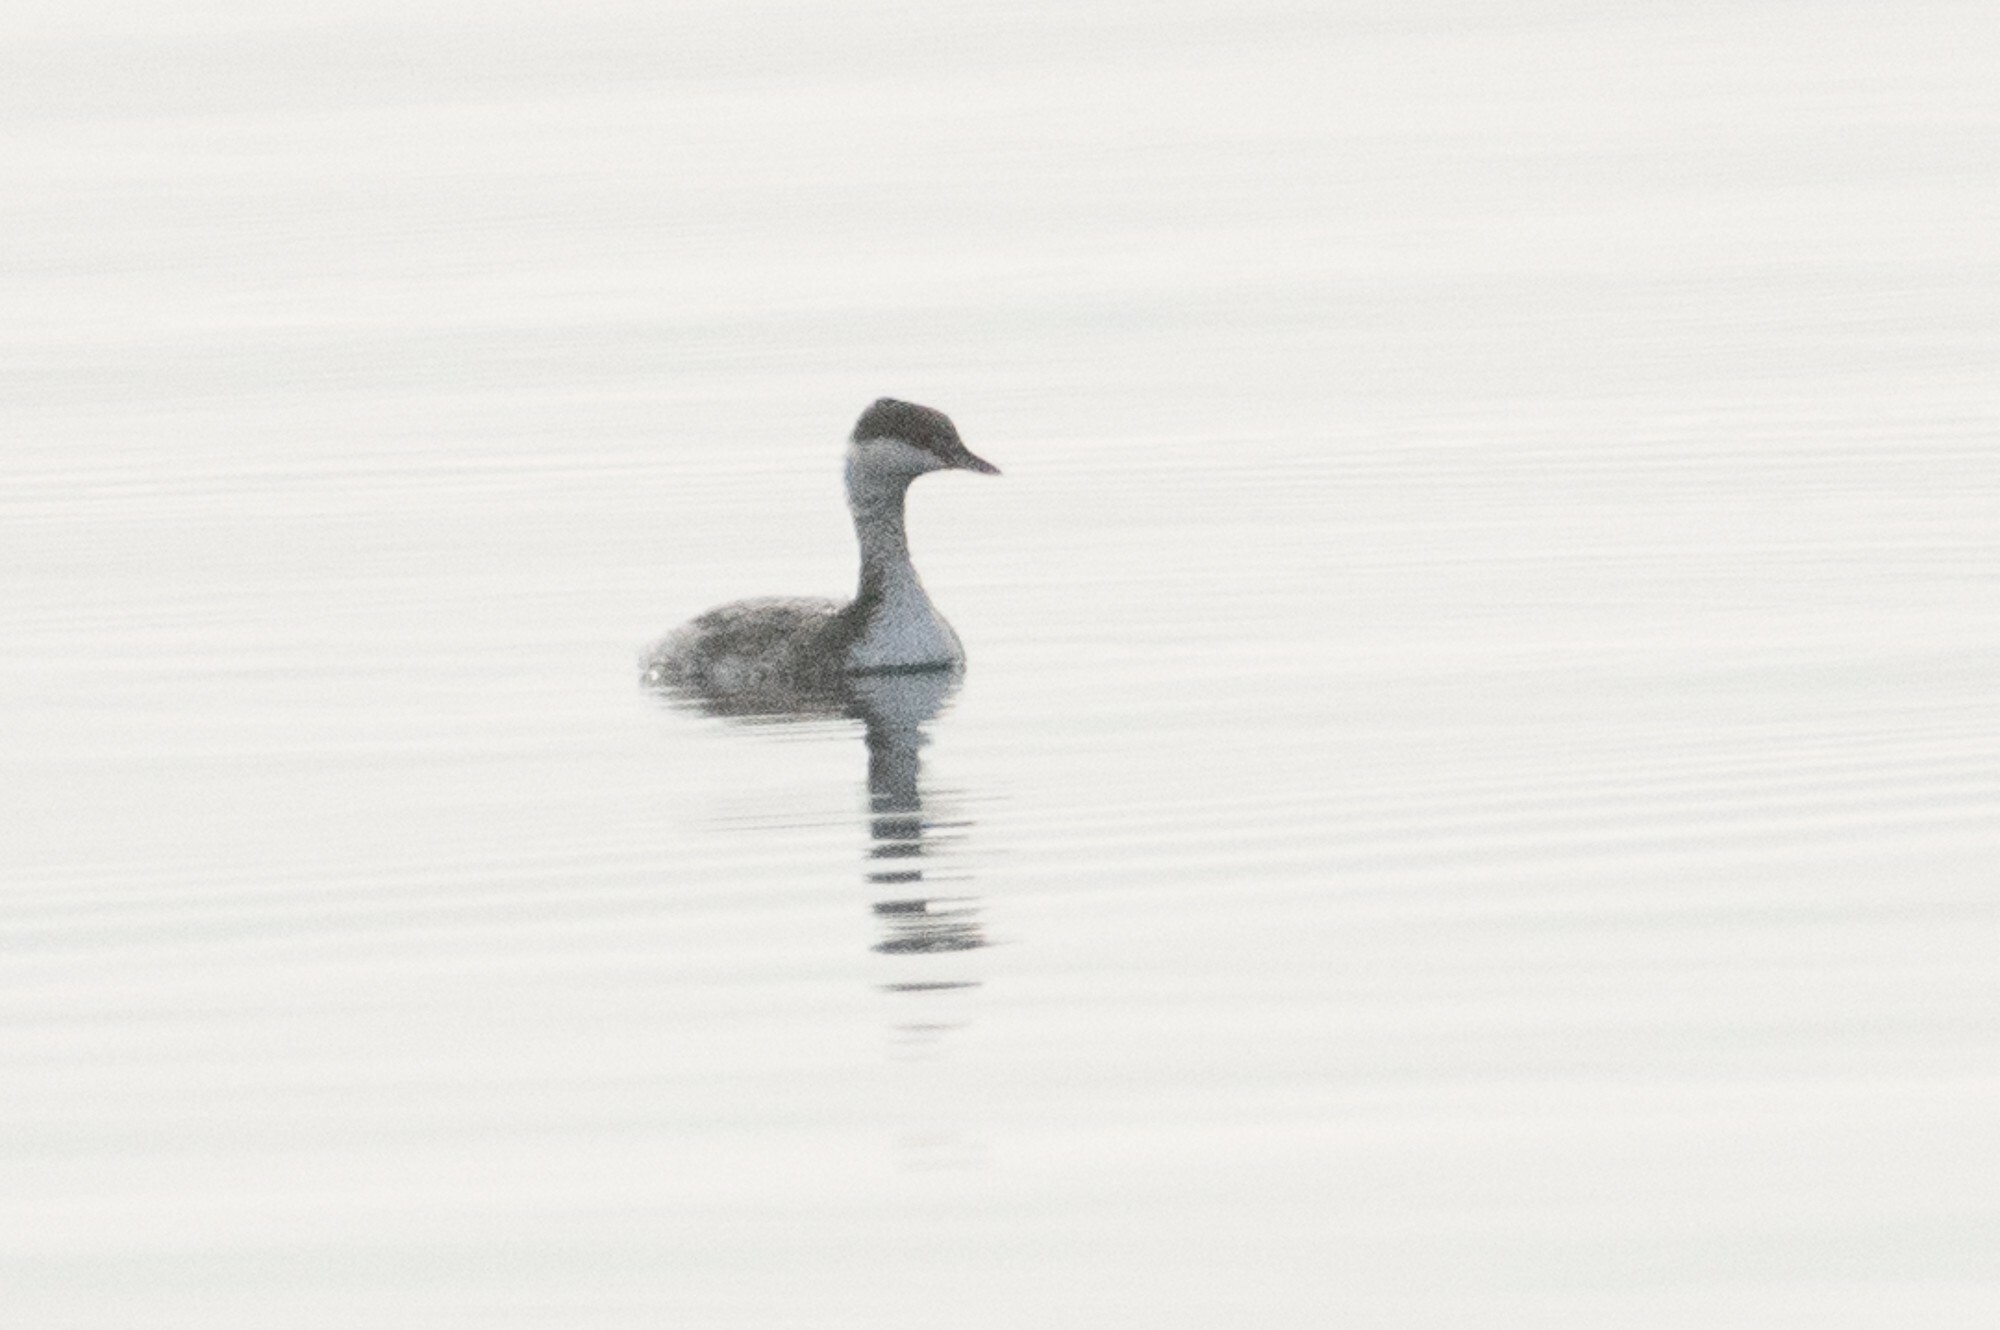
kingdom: Animalia
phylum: Chordata
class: Aves
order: Podicipediformes
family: Podicipedidae
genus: Podiceps
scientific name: Podiceps auritus
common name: Horned grebe
